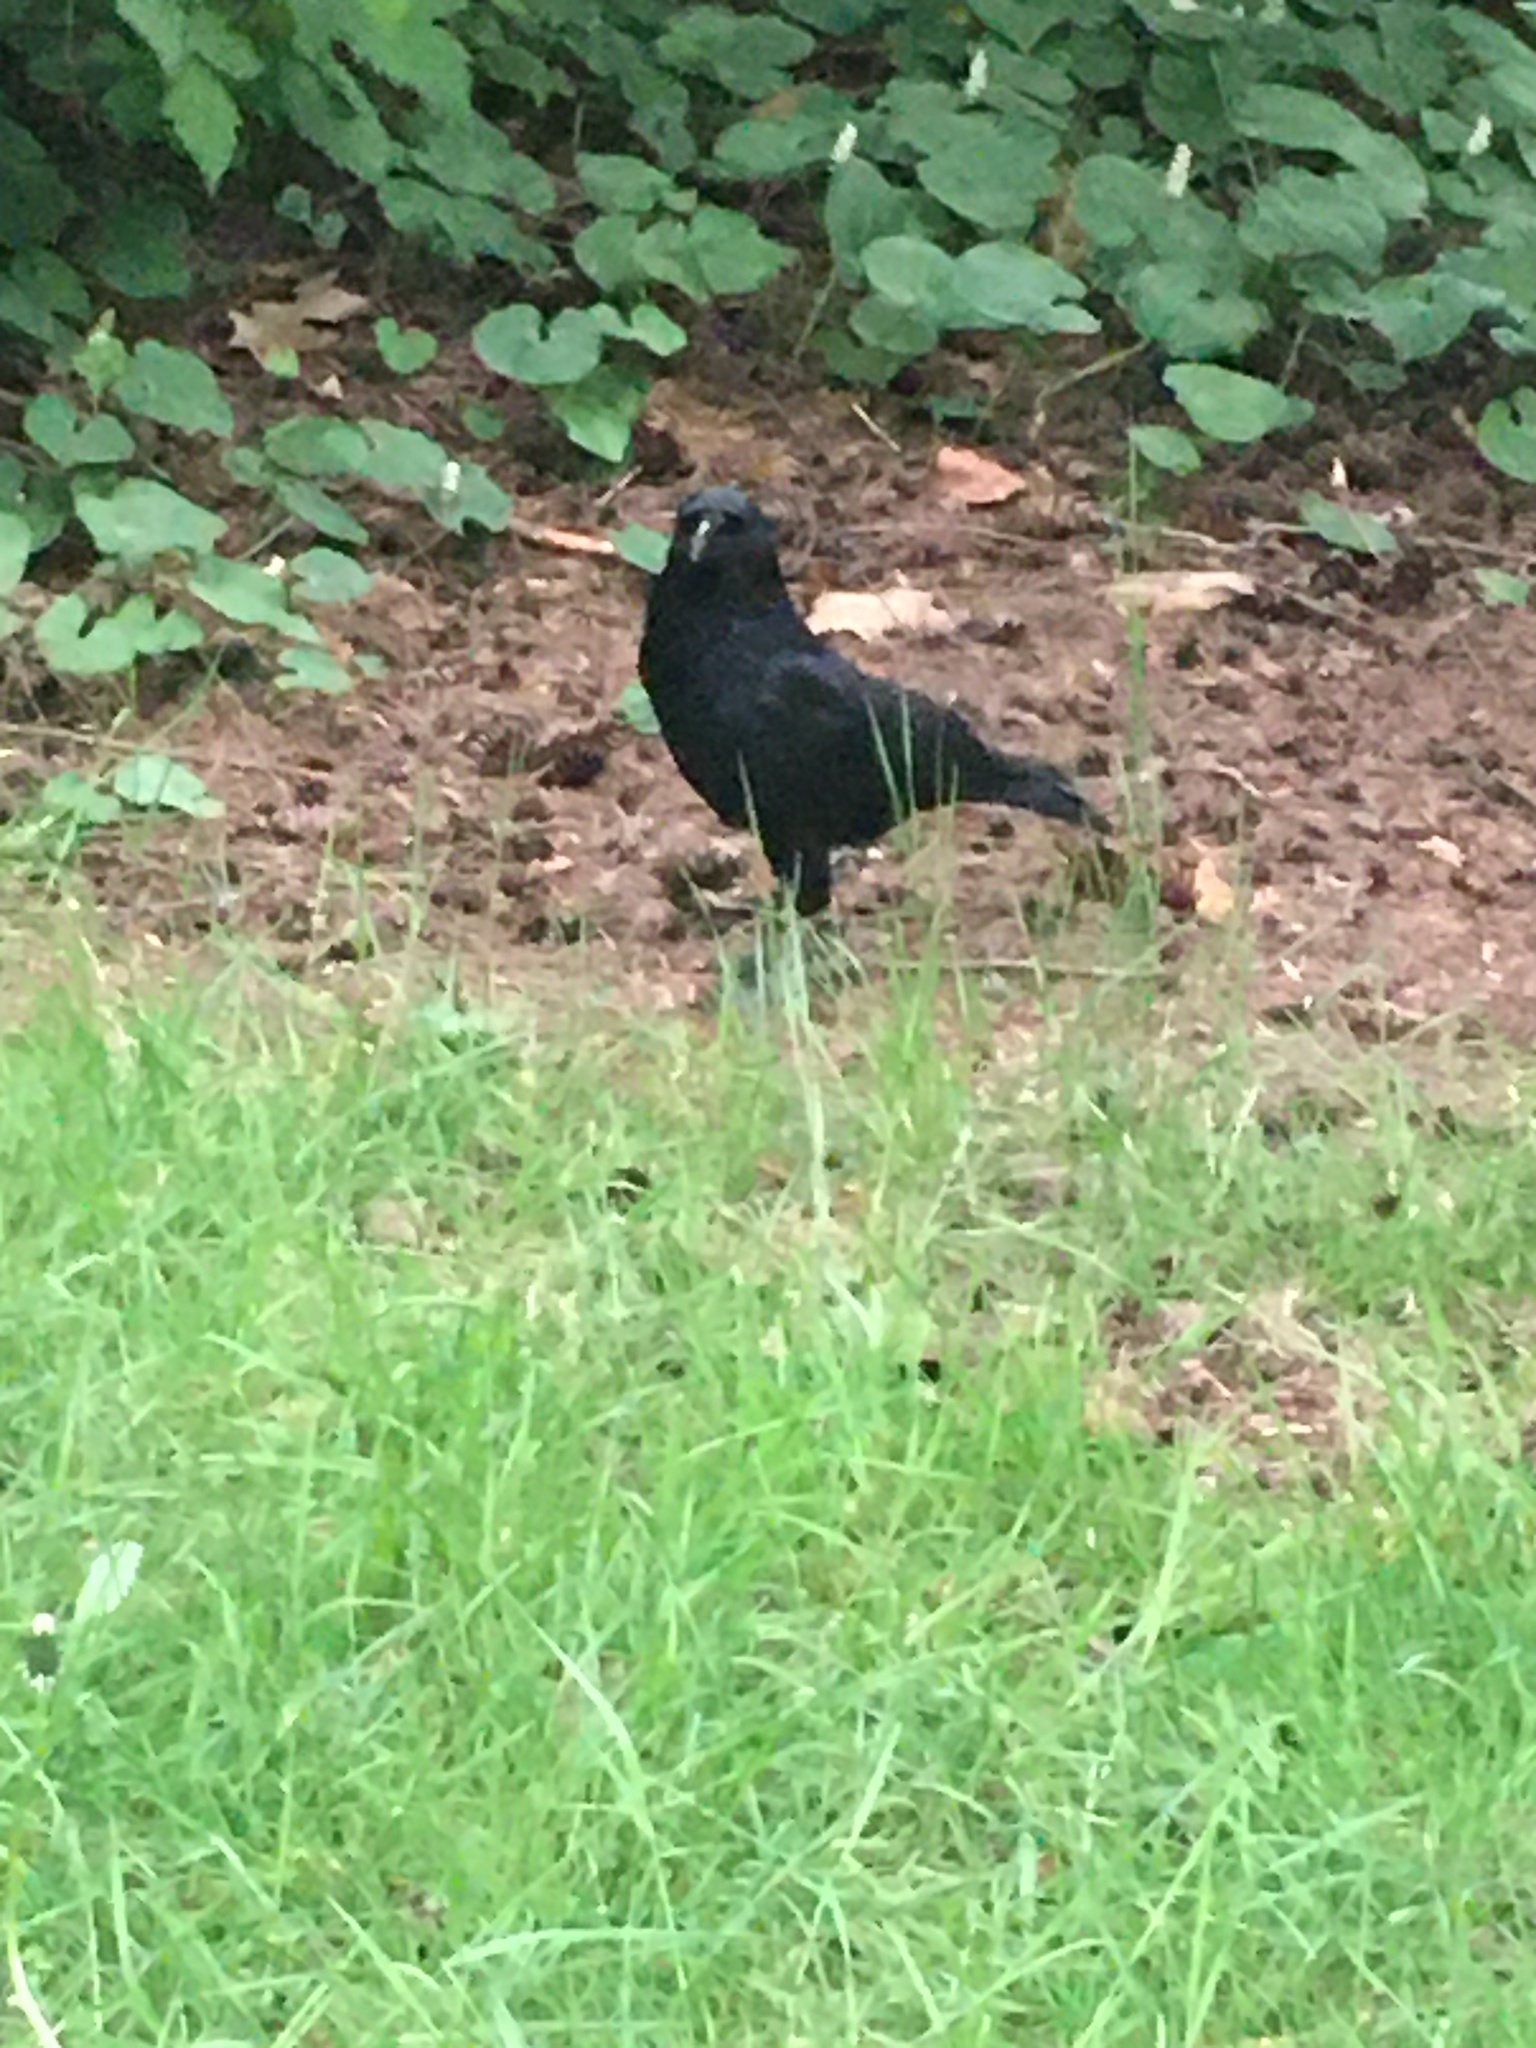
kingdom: Animalia
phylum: Chordata
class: Aves
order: Passeriformes
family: Corvidae
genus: Corvus
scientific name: Corvus brachyrhynchos
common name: American crow
